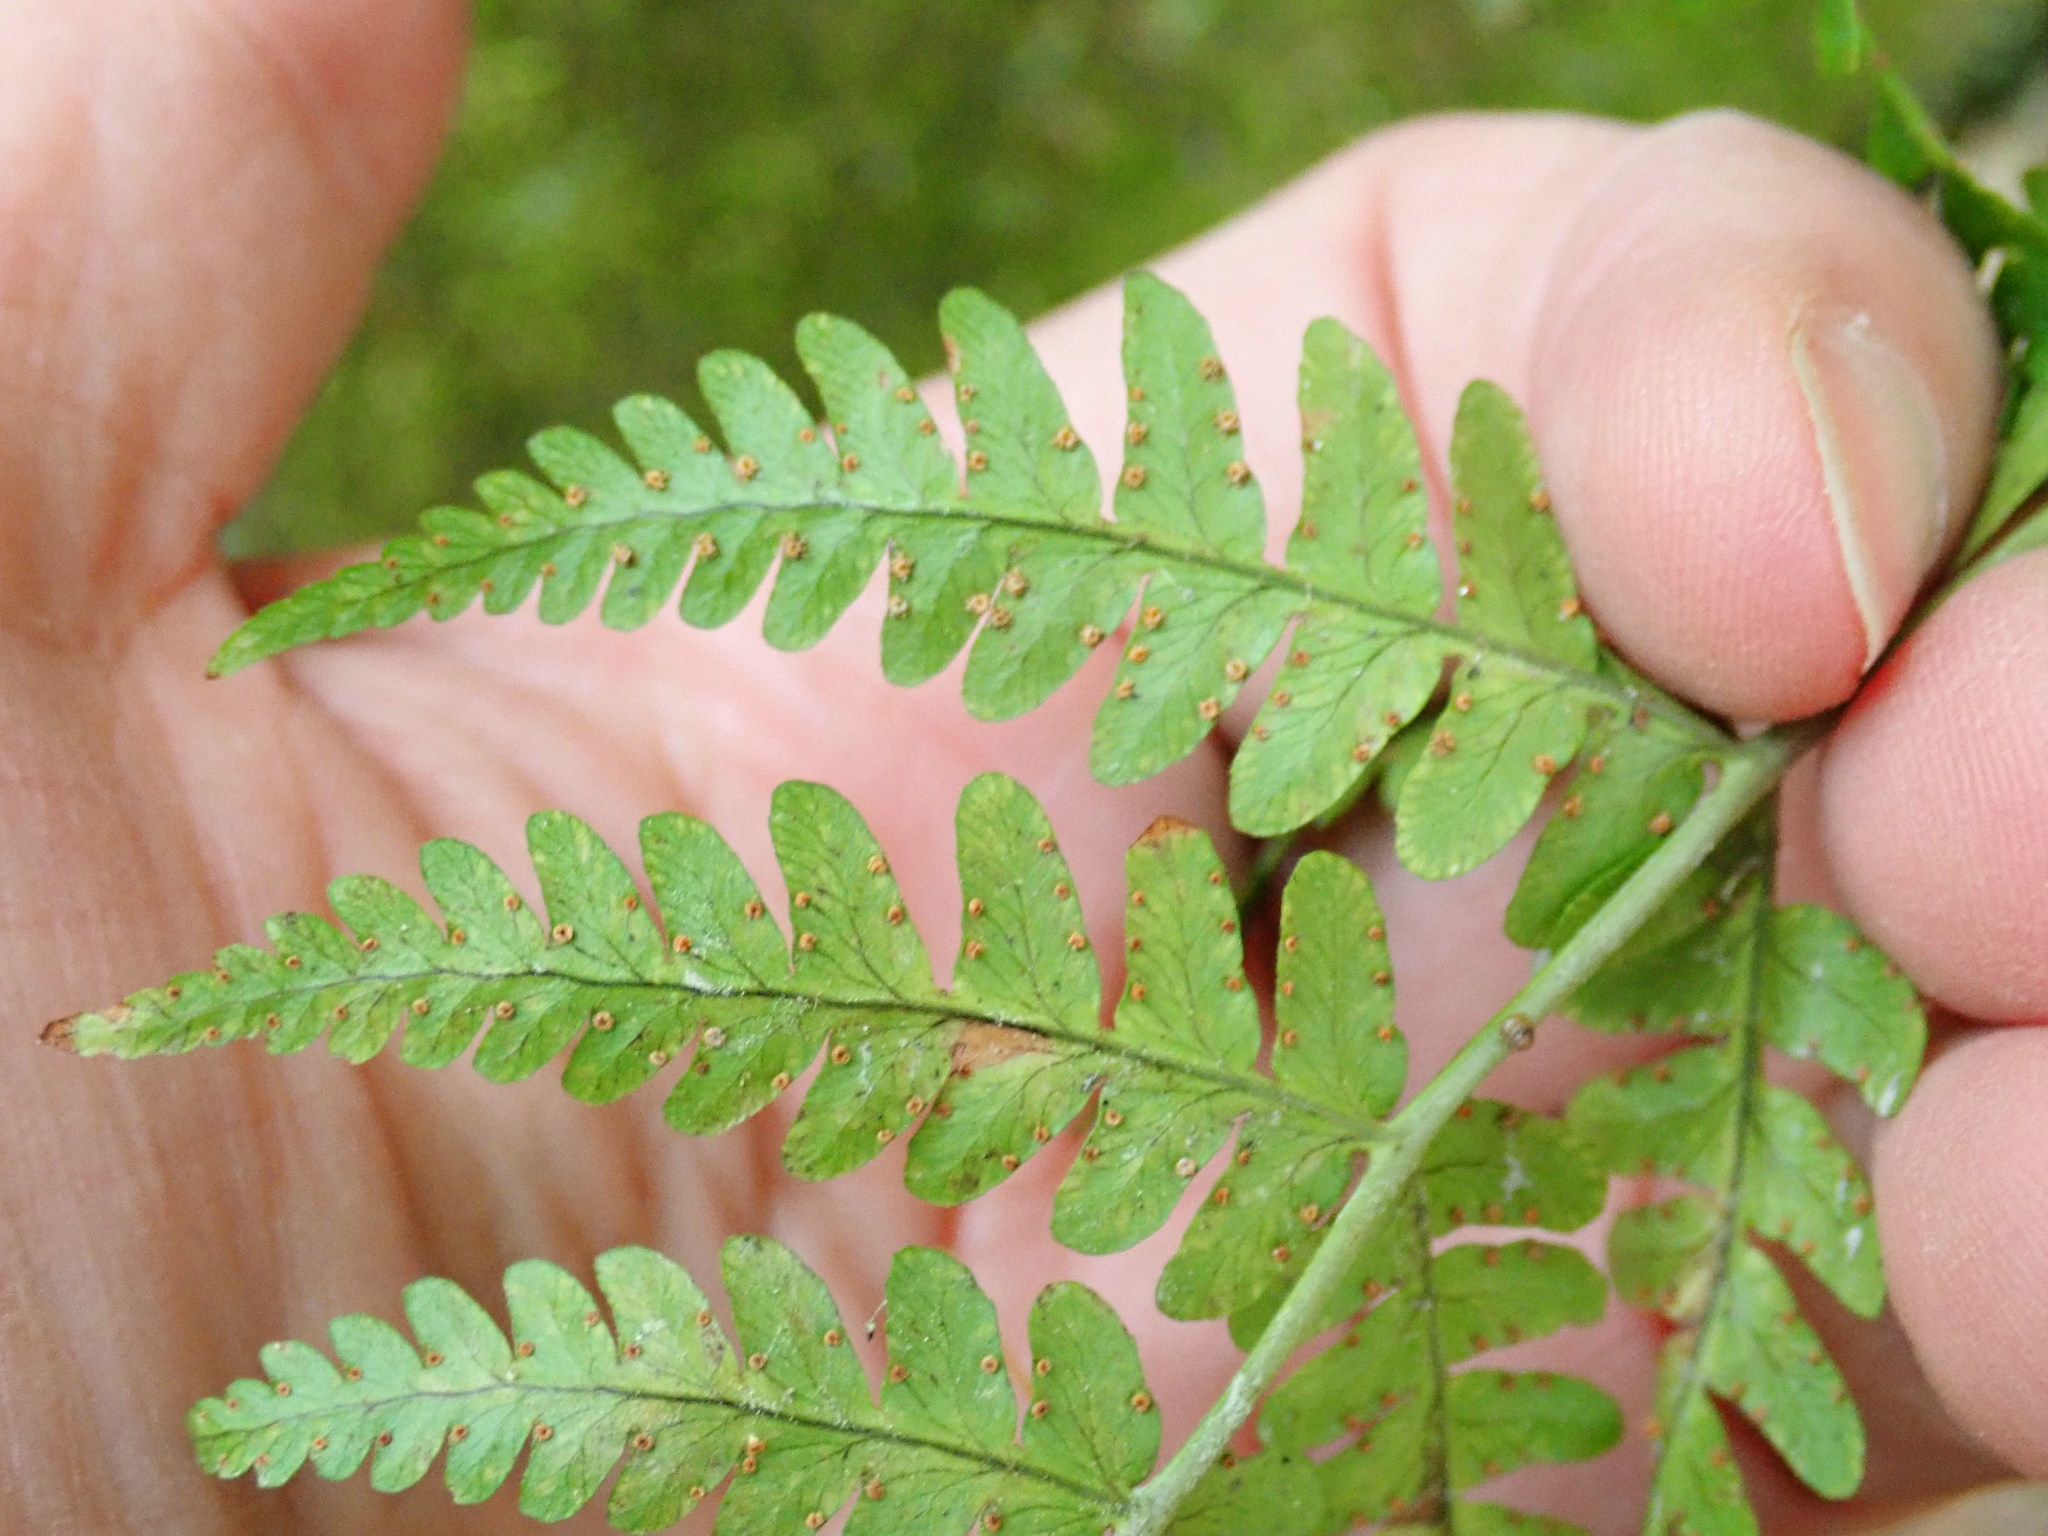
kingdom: Plantae
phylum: Tracheophyta
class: Polypodiopsida
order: Polypodiales
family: Dryopteridaceae
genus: Dryopteris
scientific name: Dryopteris marginalis
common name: Marginal wood fern
